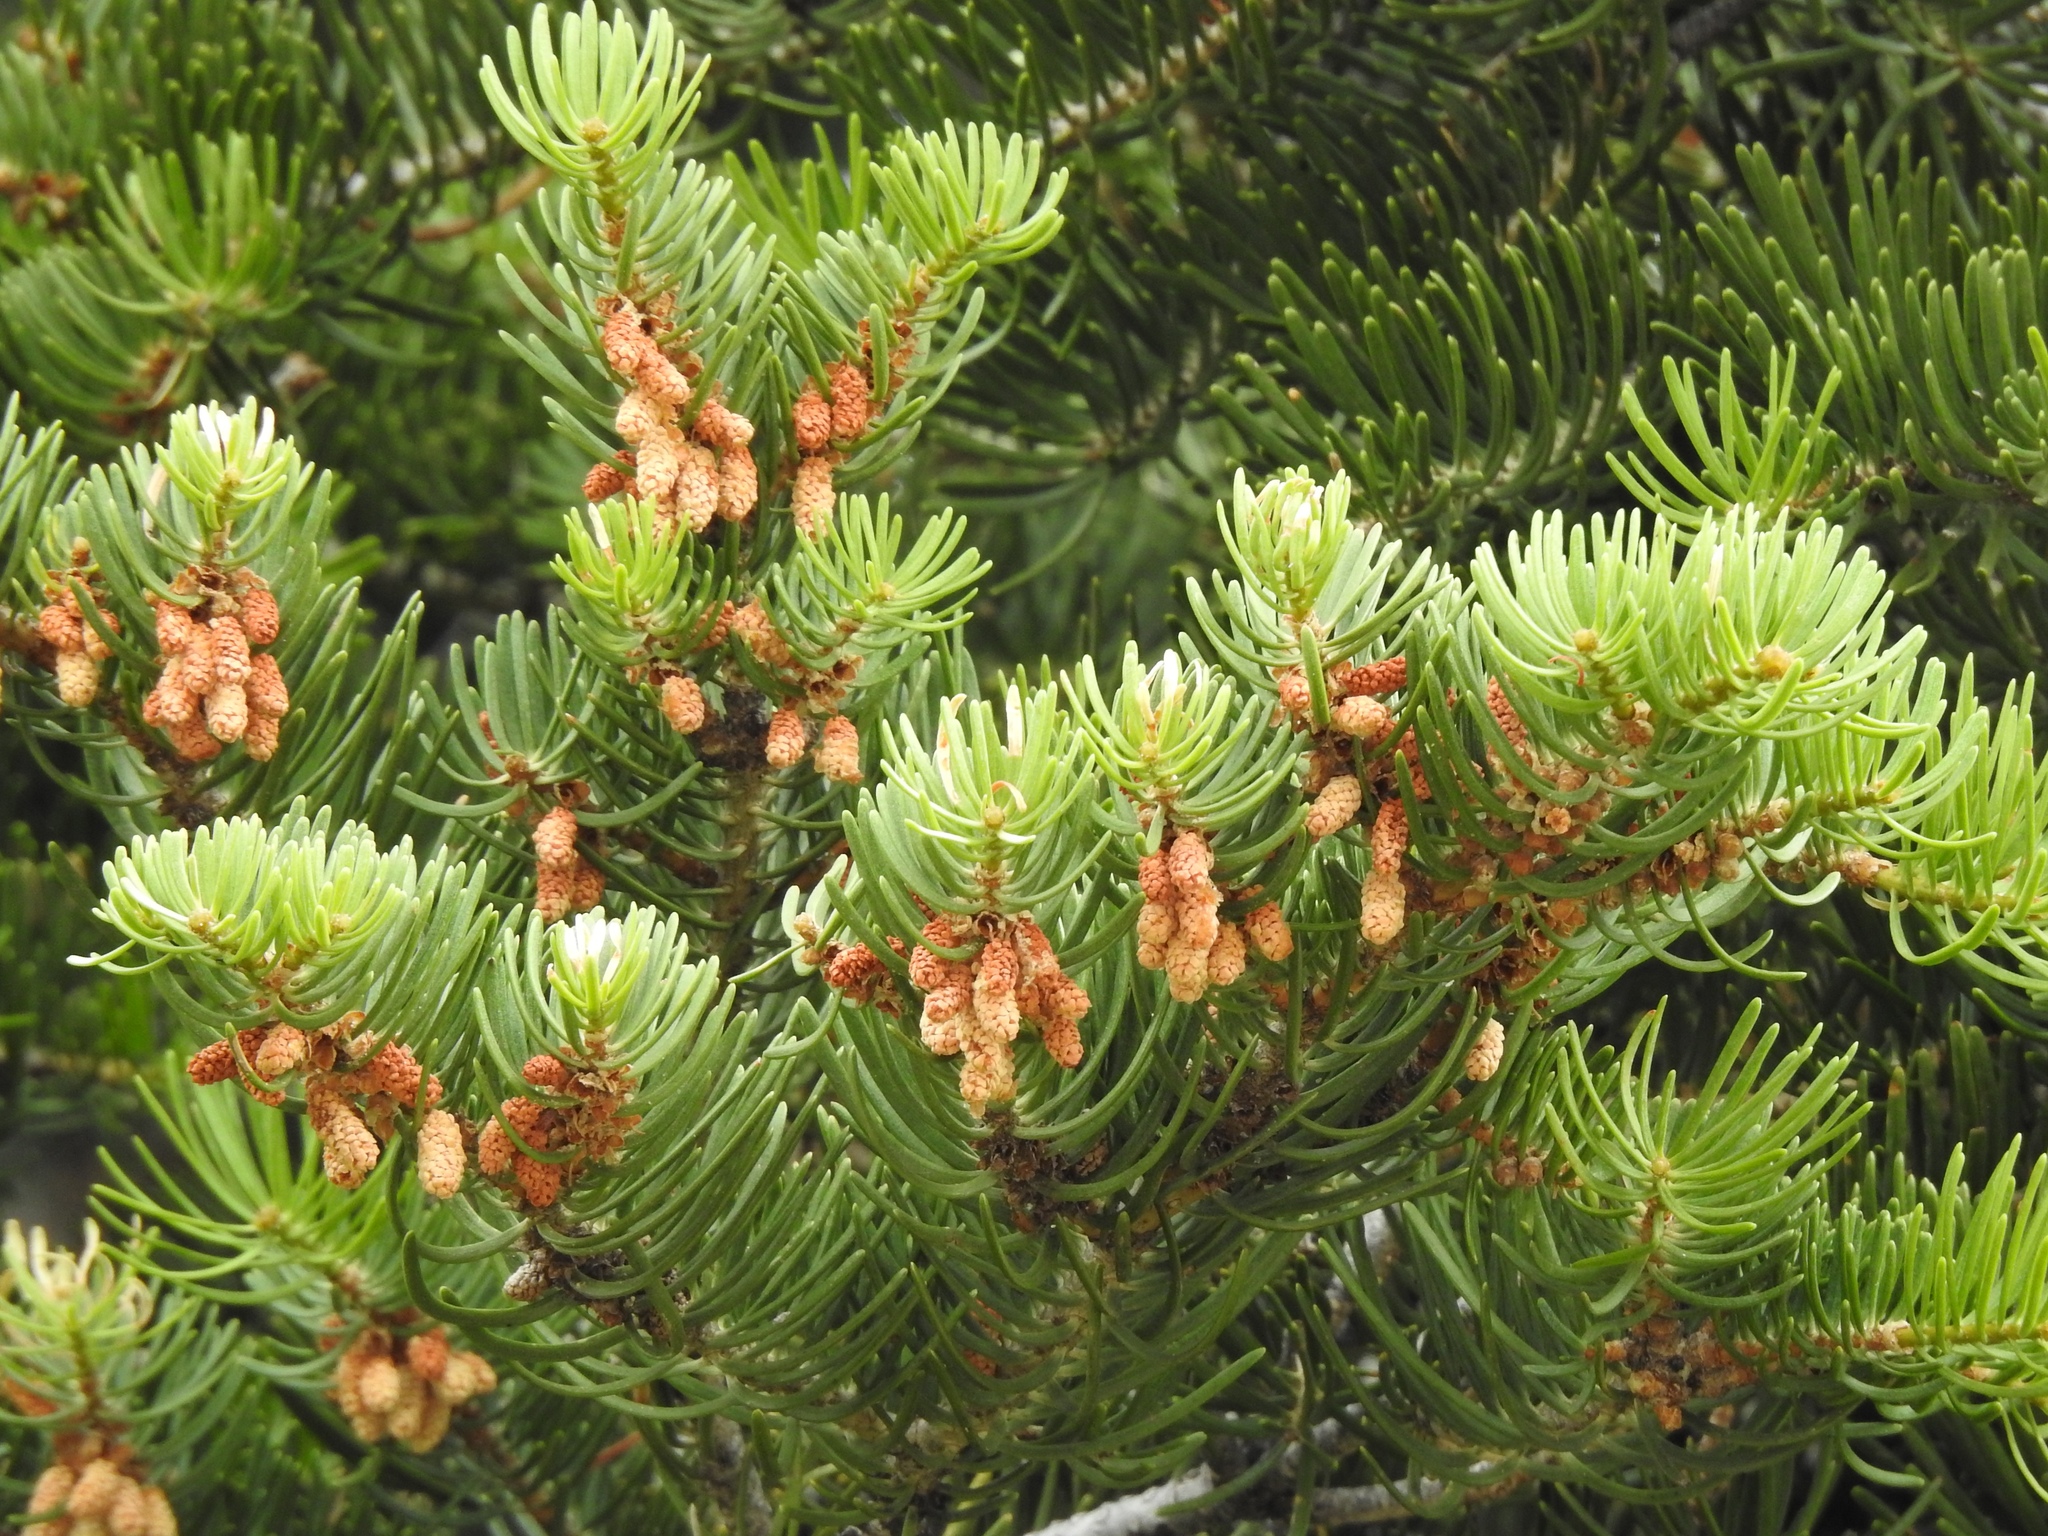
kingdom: Plantae
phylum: Tracheophyta
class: Pinopsida
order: Pinales
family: Pinaceae
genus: Abies
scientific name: Abies concolor
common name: Colorado fir
